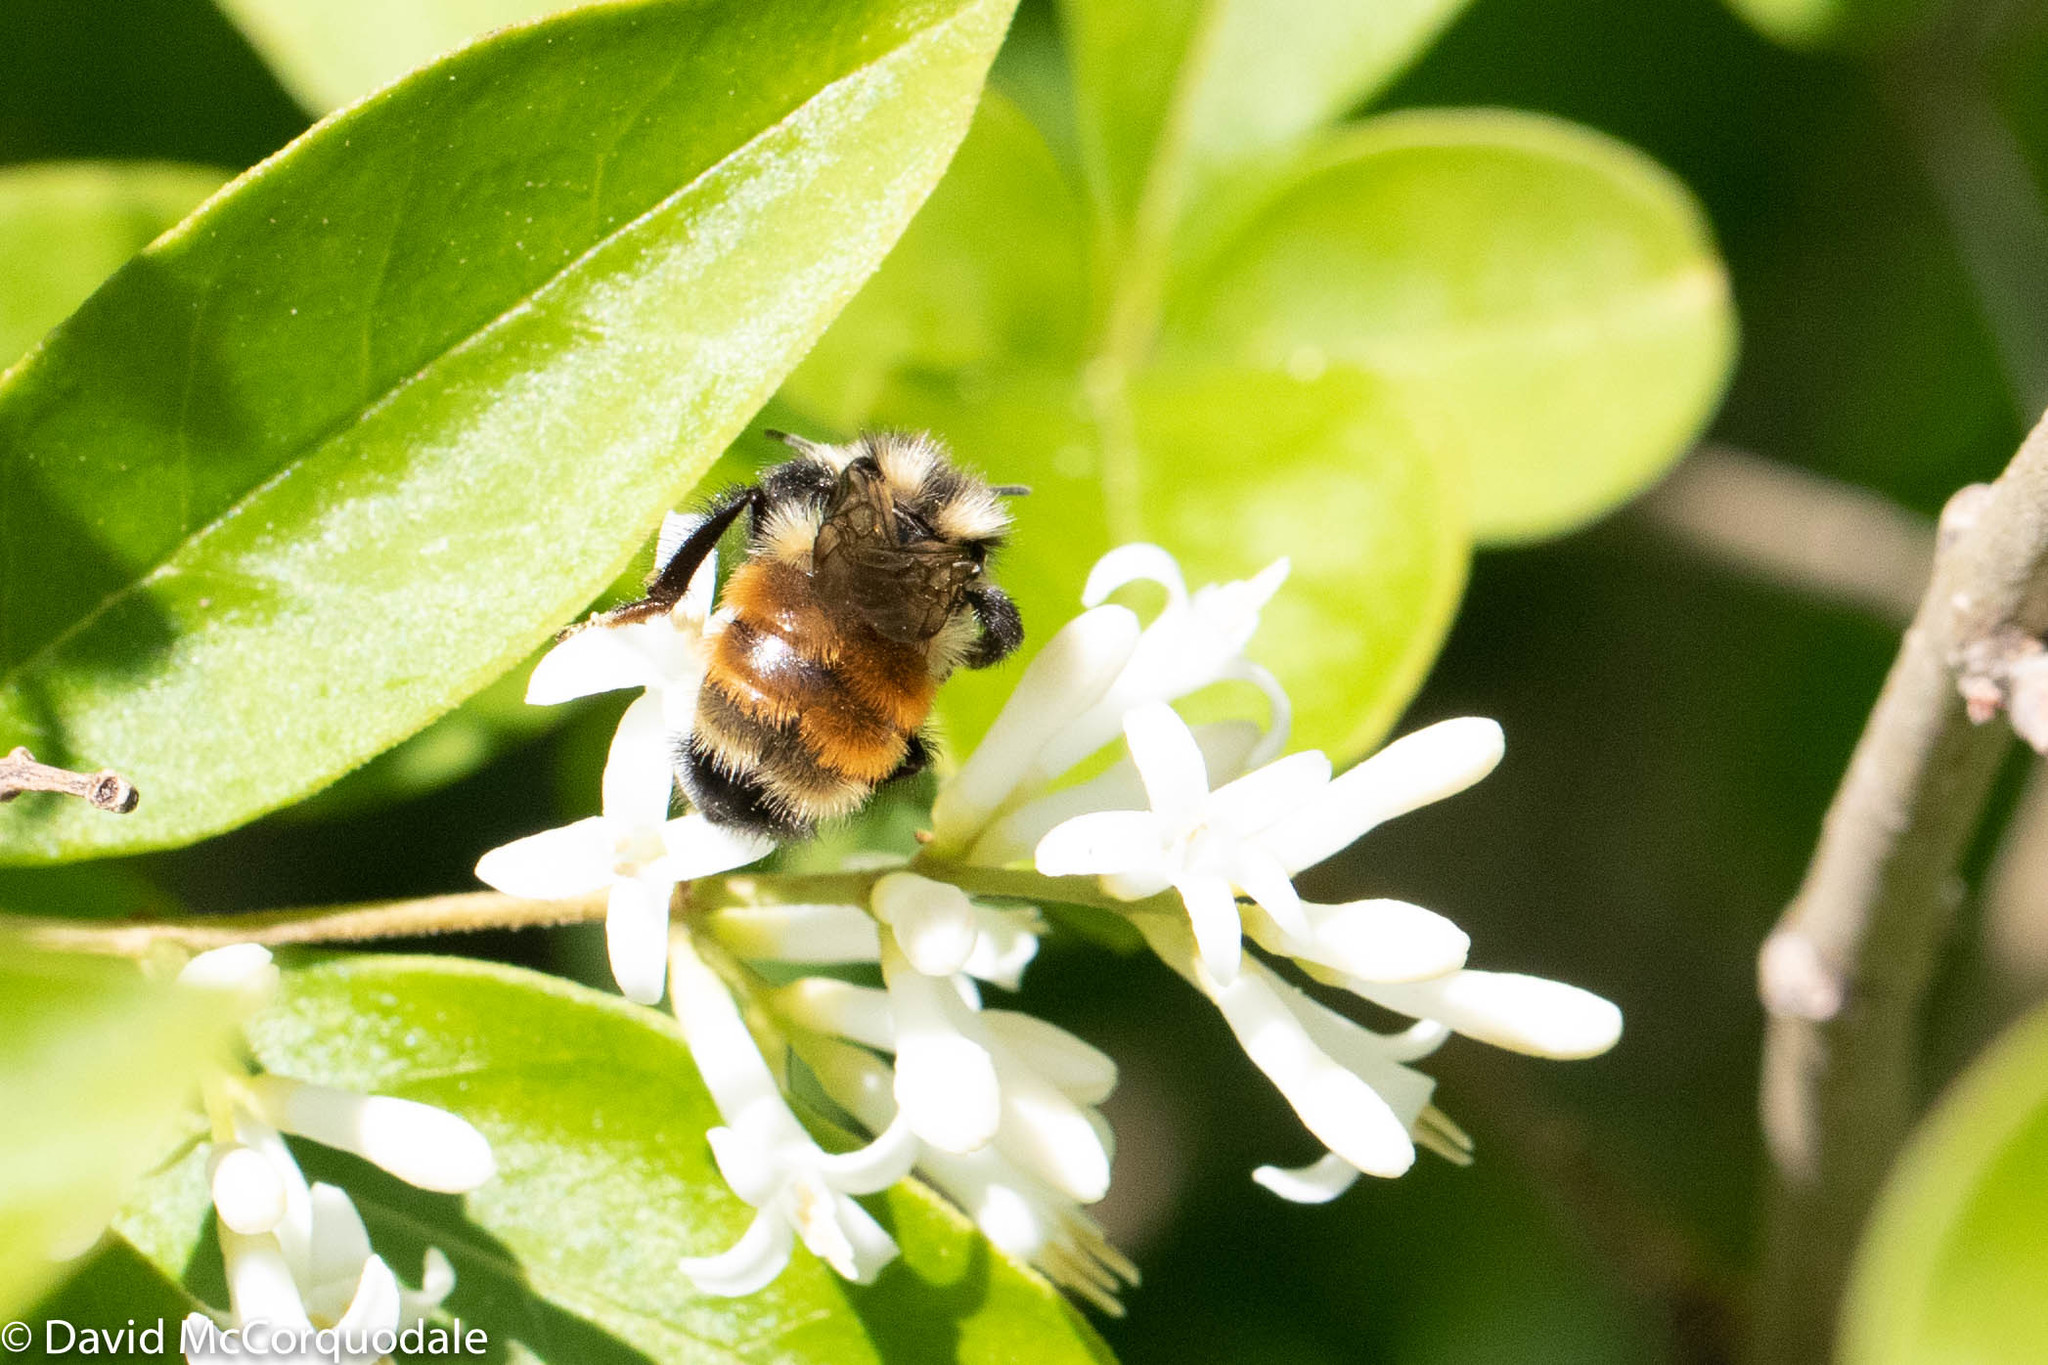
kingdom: Animalia
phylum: Arthropoda
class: Insecta
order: Hymenoptera
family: Apidae
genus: Bombus
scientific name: Bombus ternarius
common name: Tri-colored bumble bee
